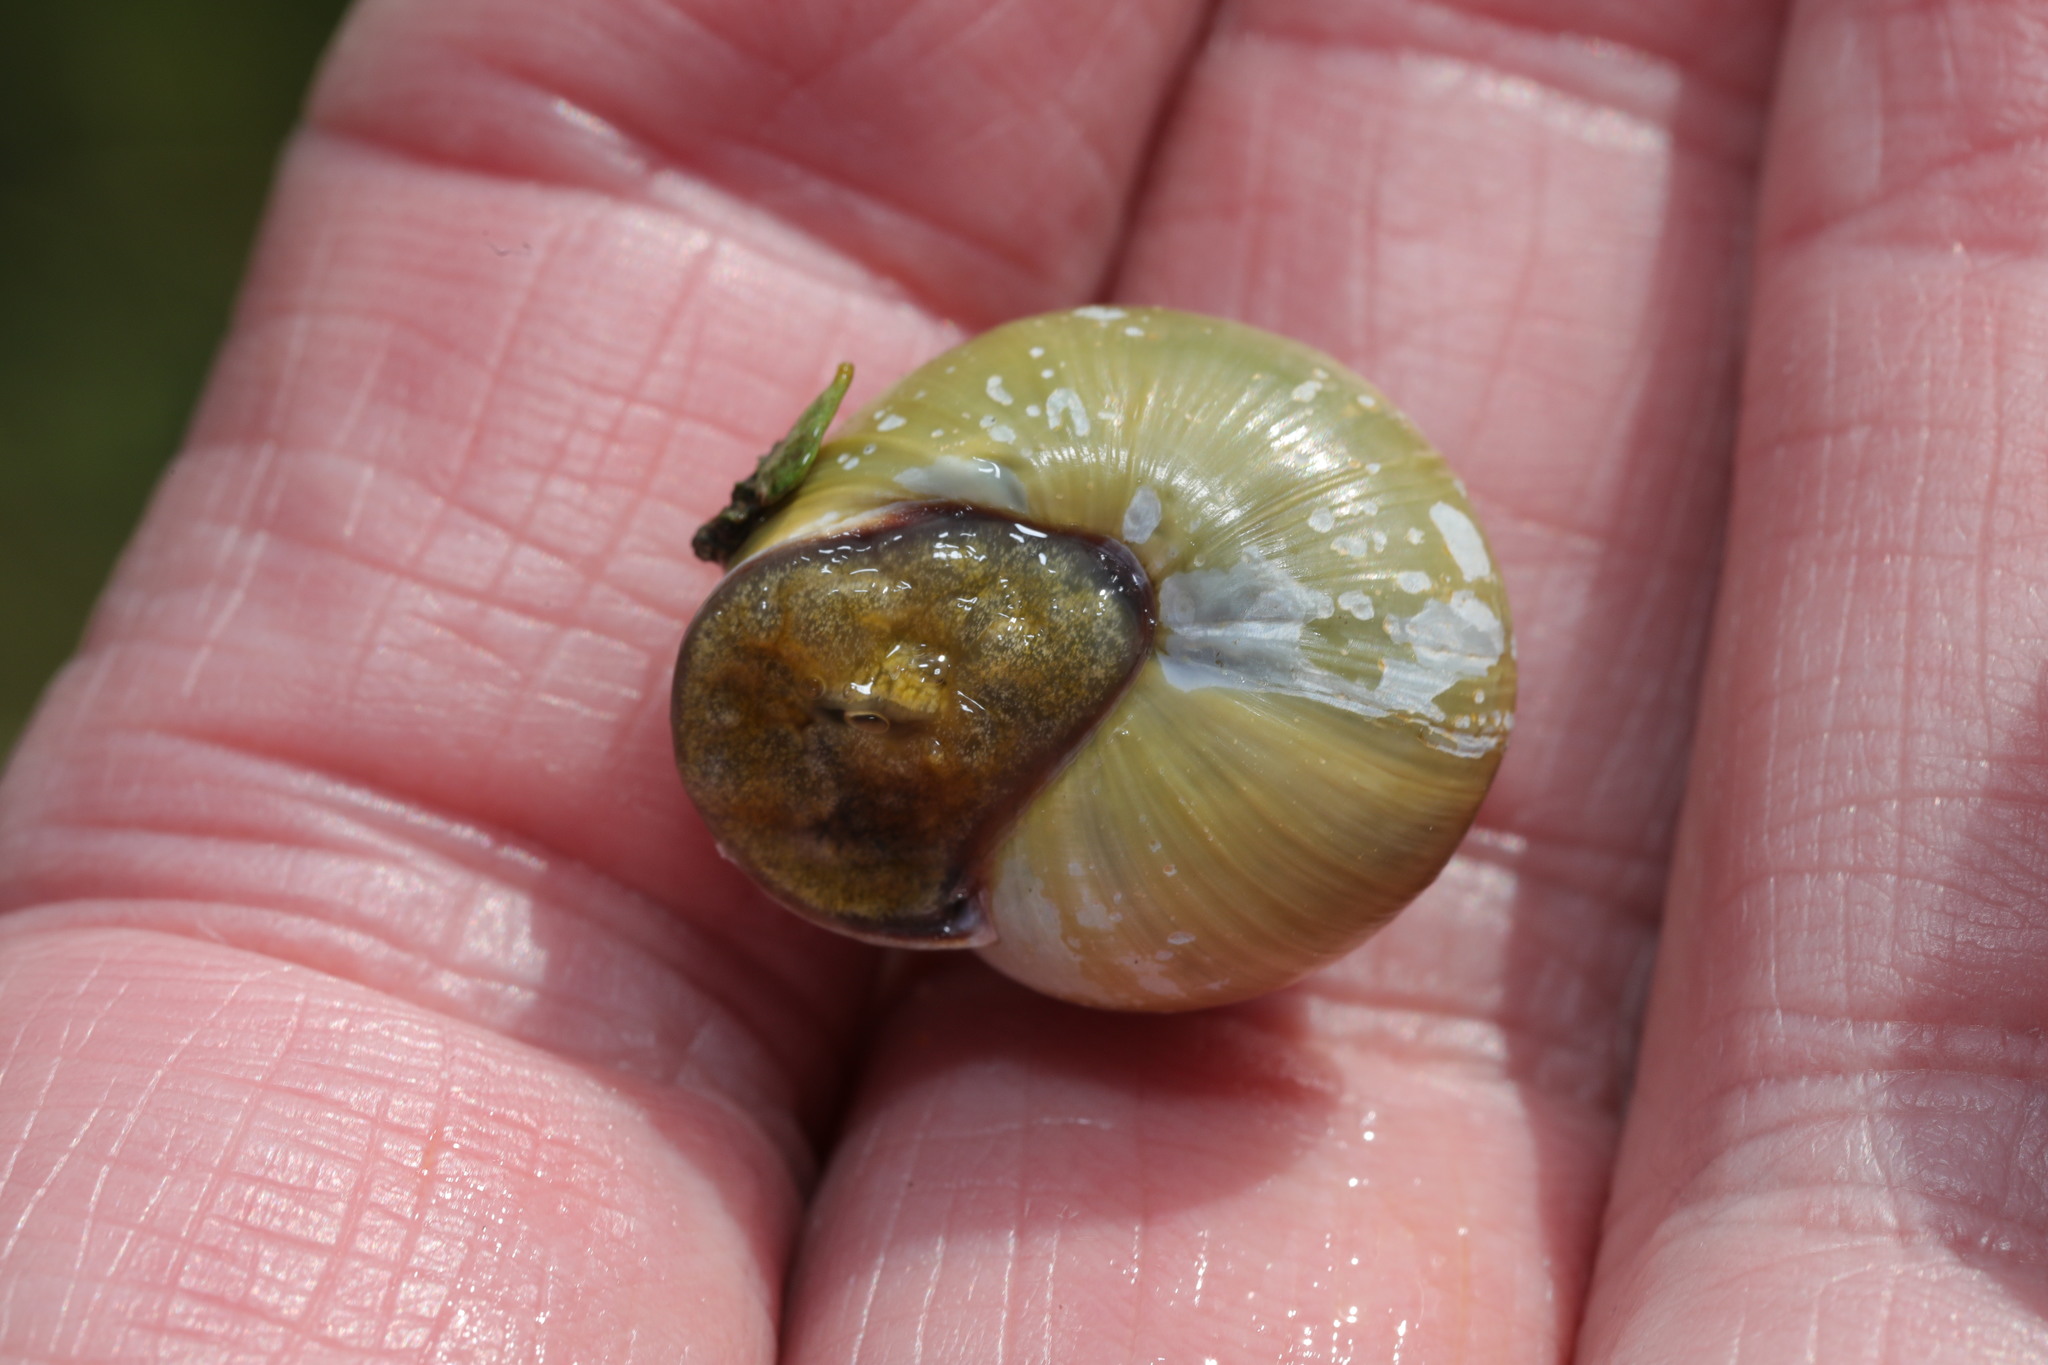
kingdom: Animalia
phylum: Mollusca
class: Gastropoda
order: Stylommatophora
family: Helicidae
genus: Cepaea
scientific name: Cepaea hortensis
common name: White-lip gardensnail
